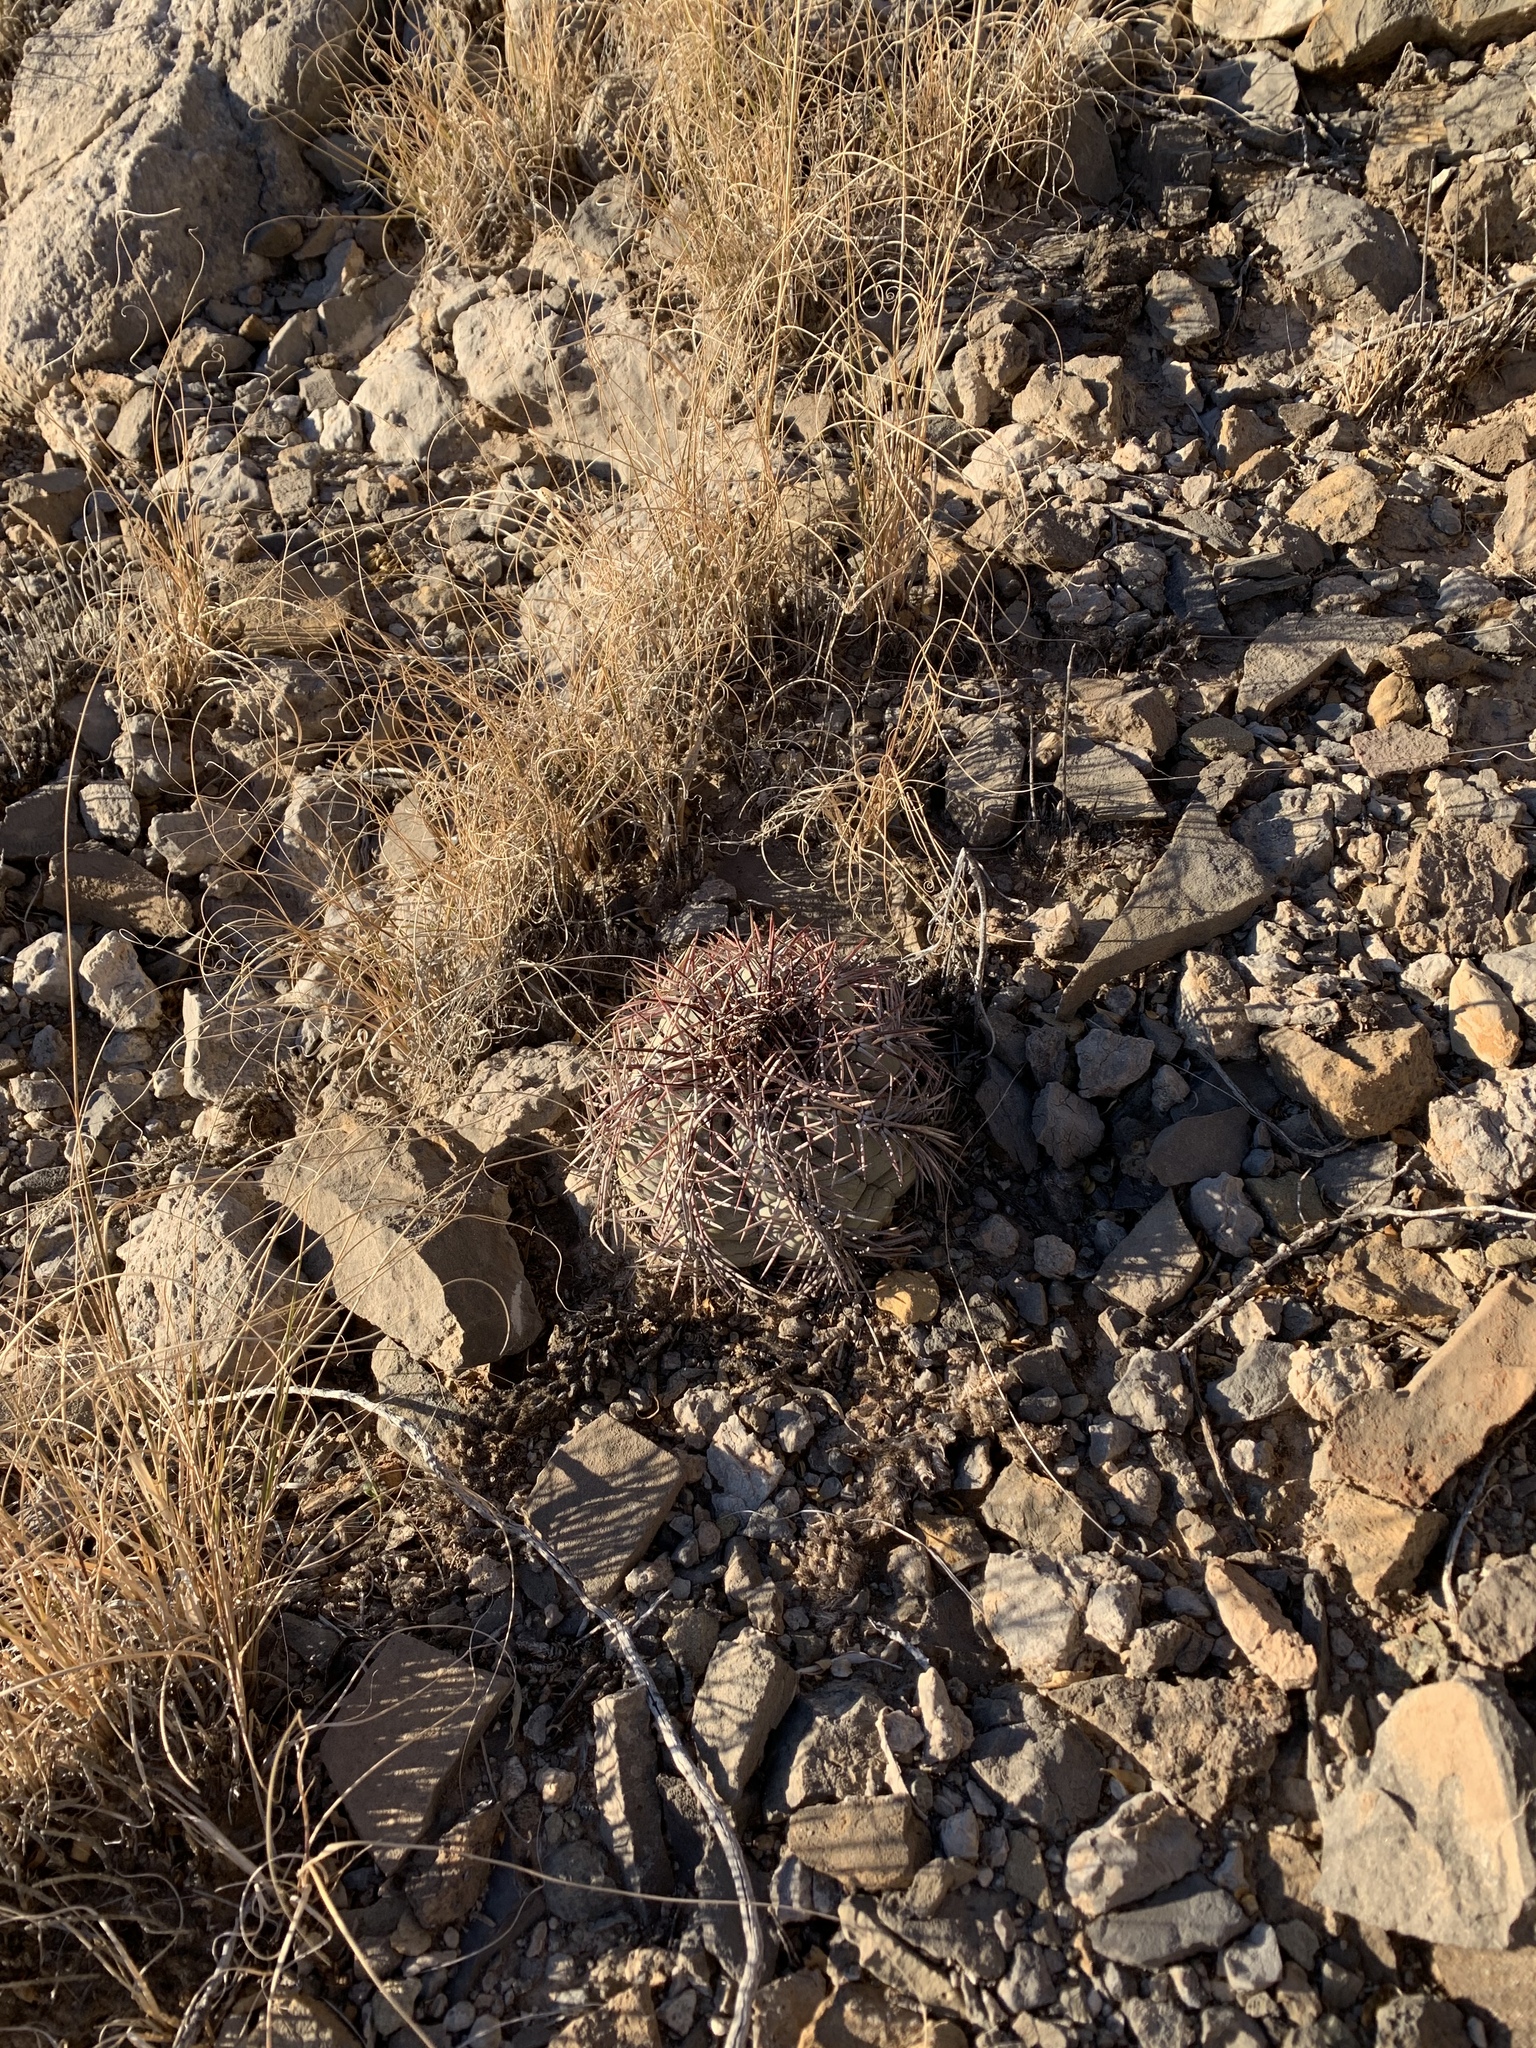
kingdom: Plantae
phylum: Tracheophyta
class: Magnoliopsida
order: Caryophyllales
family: Cactaceae
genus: Echinocactus
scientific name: Echinocactus horizonthalonius
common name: Devilshead
